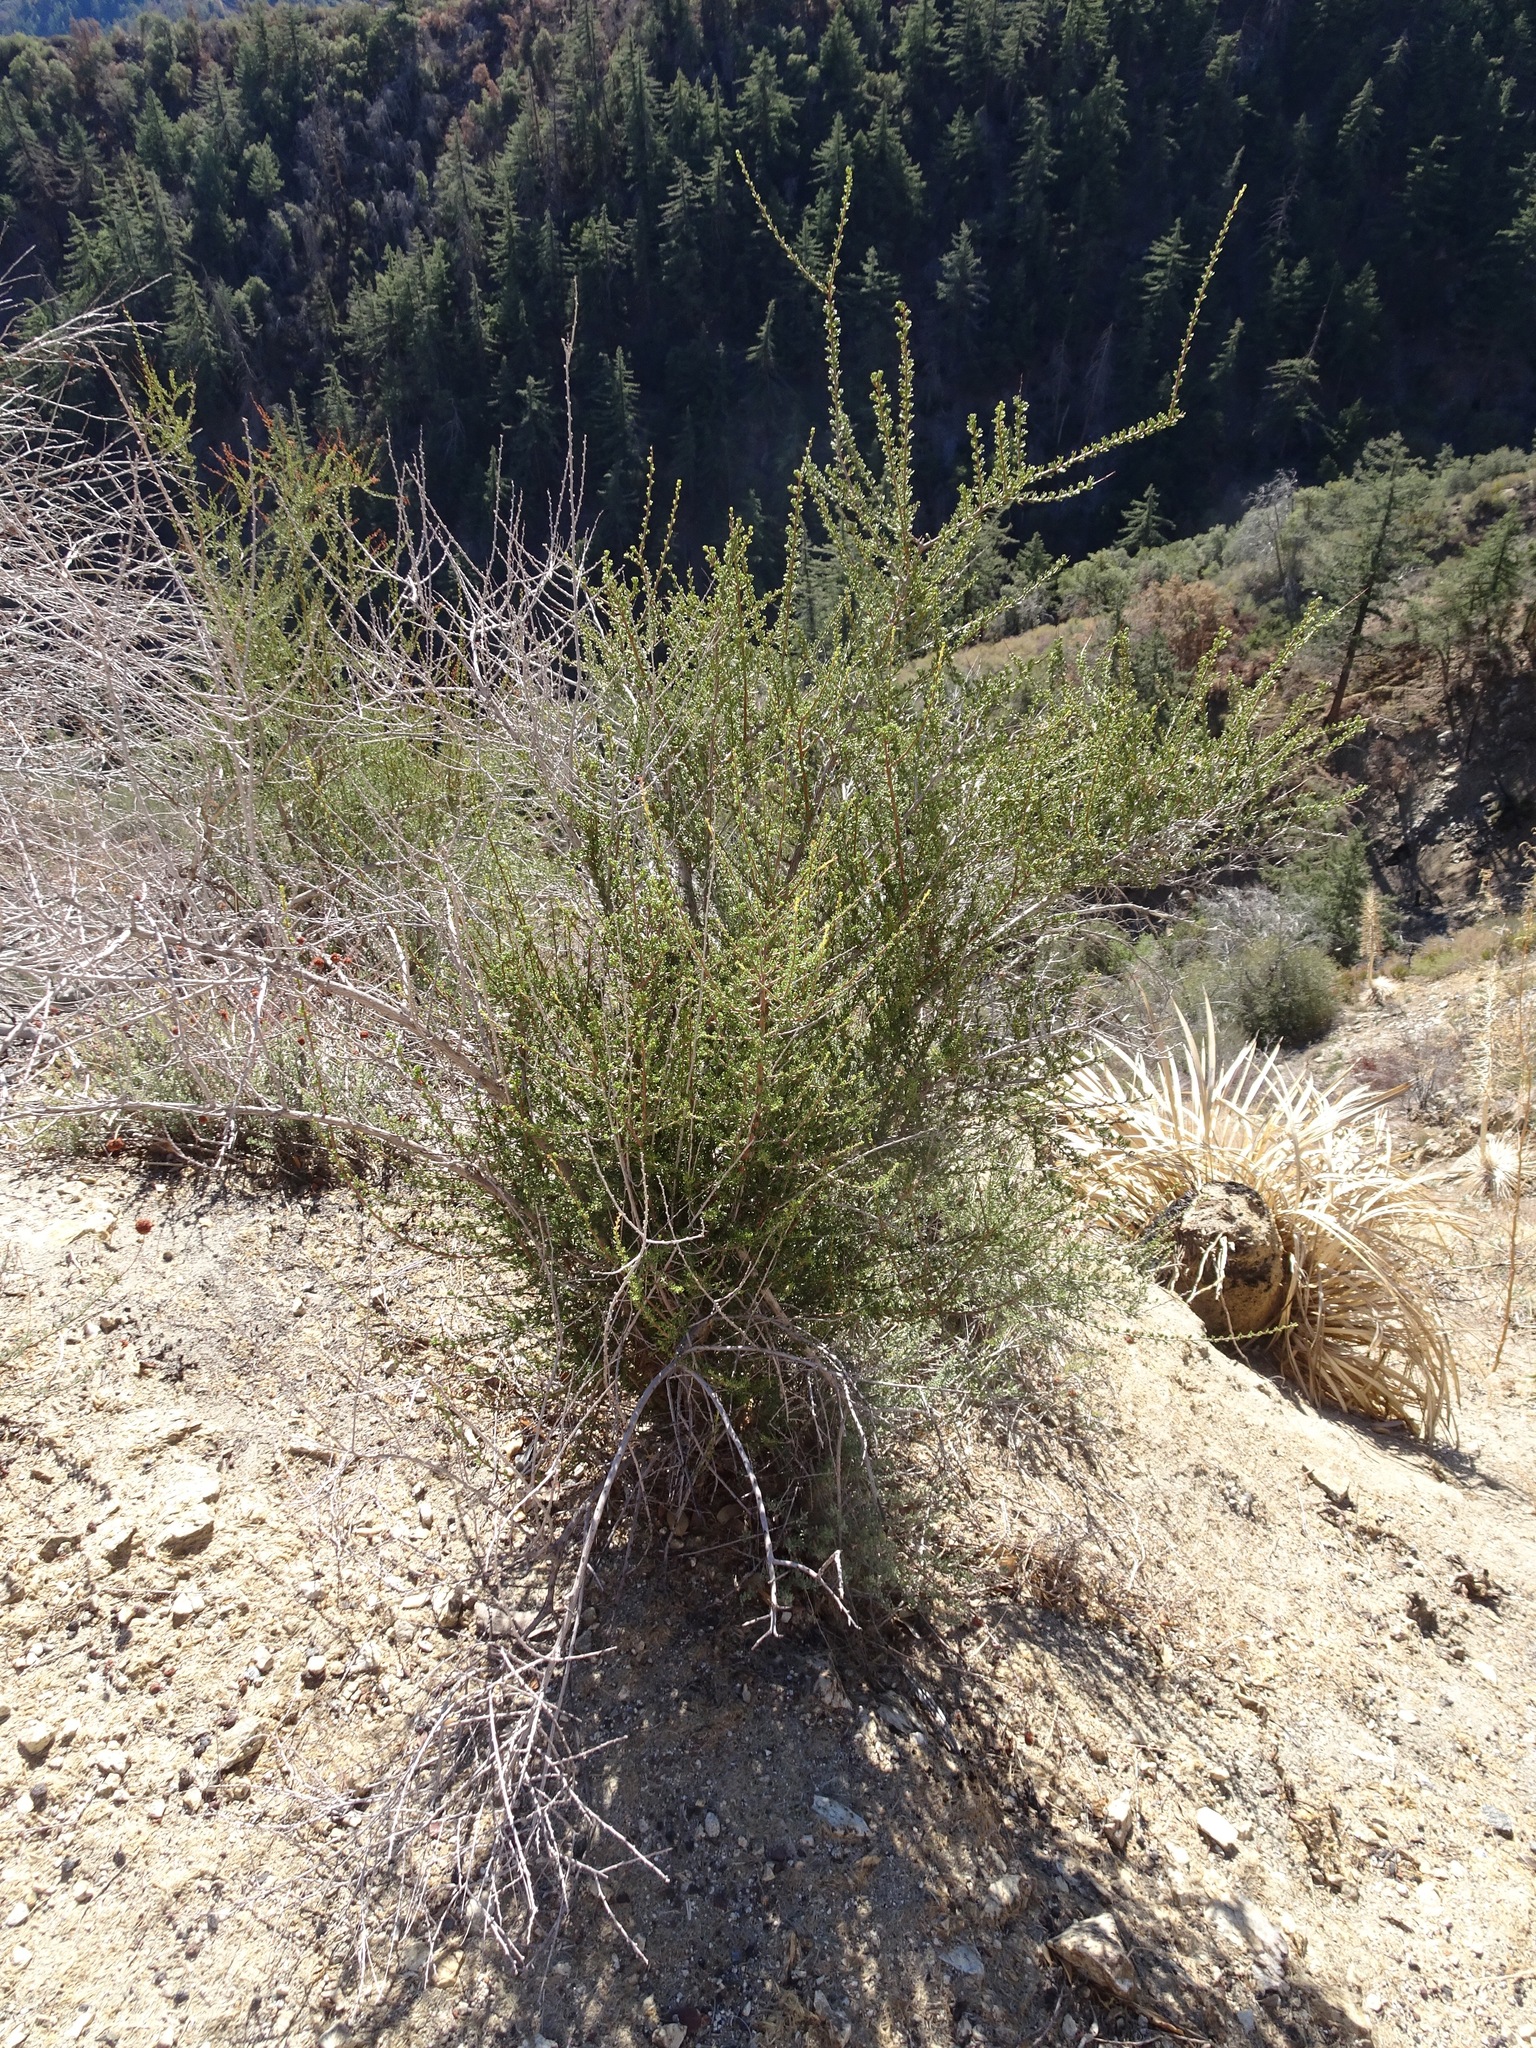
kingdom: Plantae
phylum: Tracheophyta
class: Magnoliopsida
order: Rosales
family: Rosaceae
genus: Adenostoma
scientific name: Adenostoma fasciculatum
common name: Chamise
